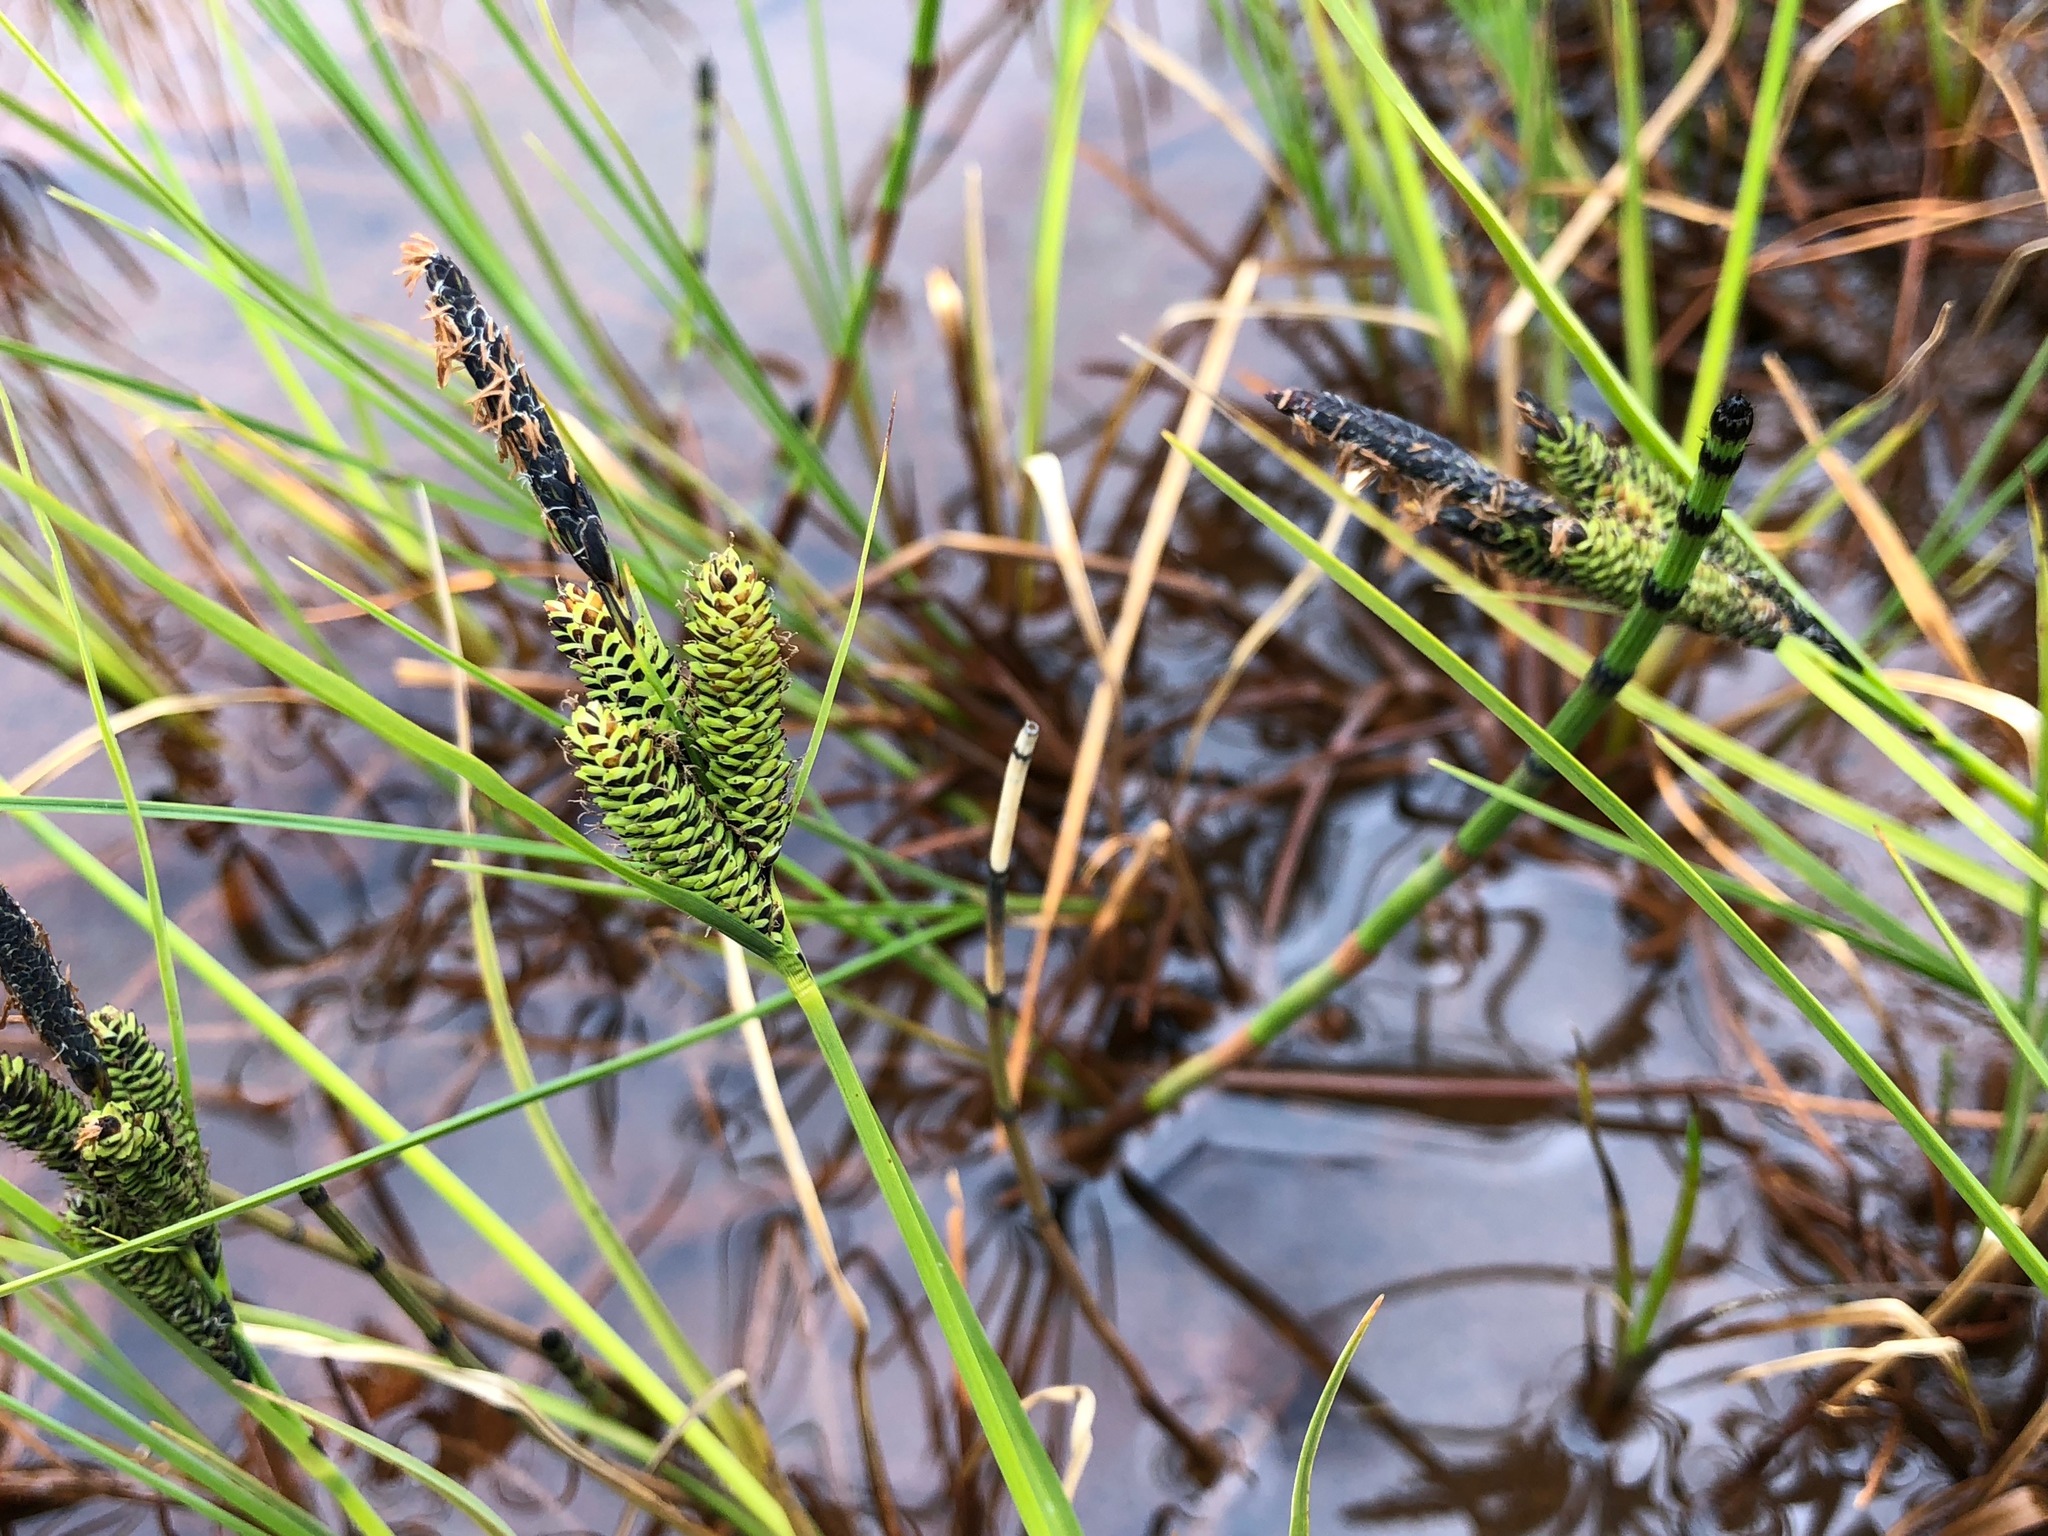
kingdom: Plantae
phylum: Tracheophyta
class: Liliopsida
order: Poales
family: Cyperaceae
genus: Carex
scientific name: Carex lenticularis
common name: Lakeshore sedge
